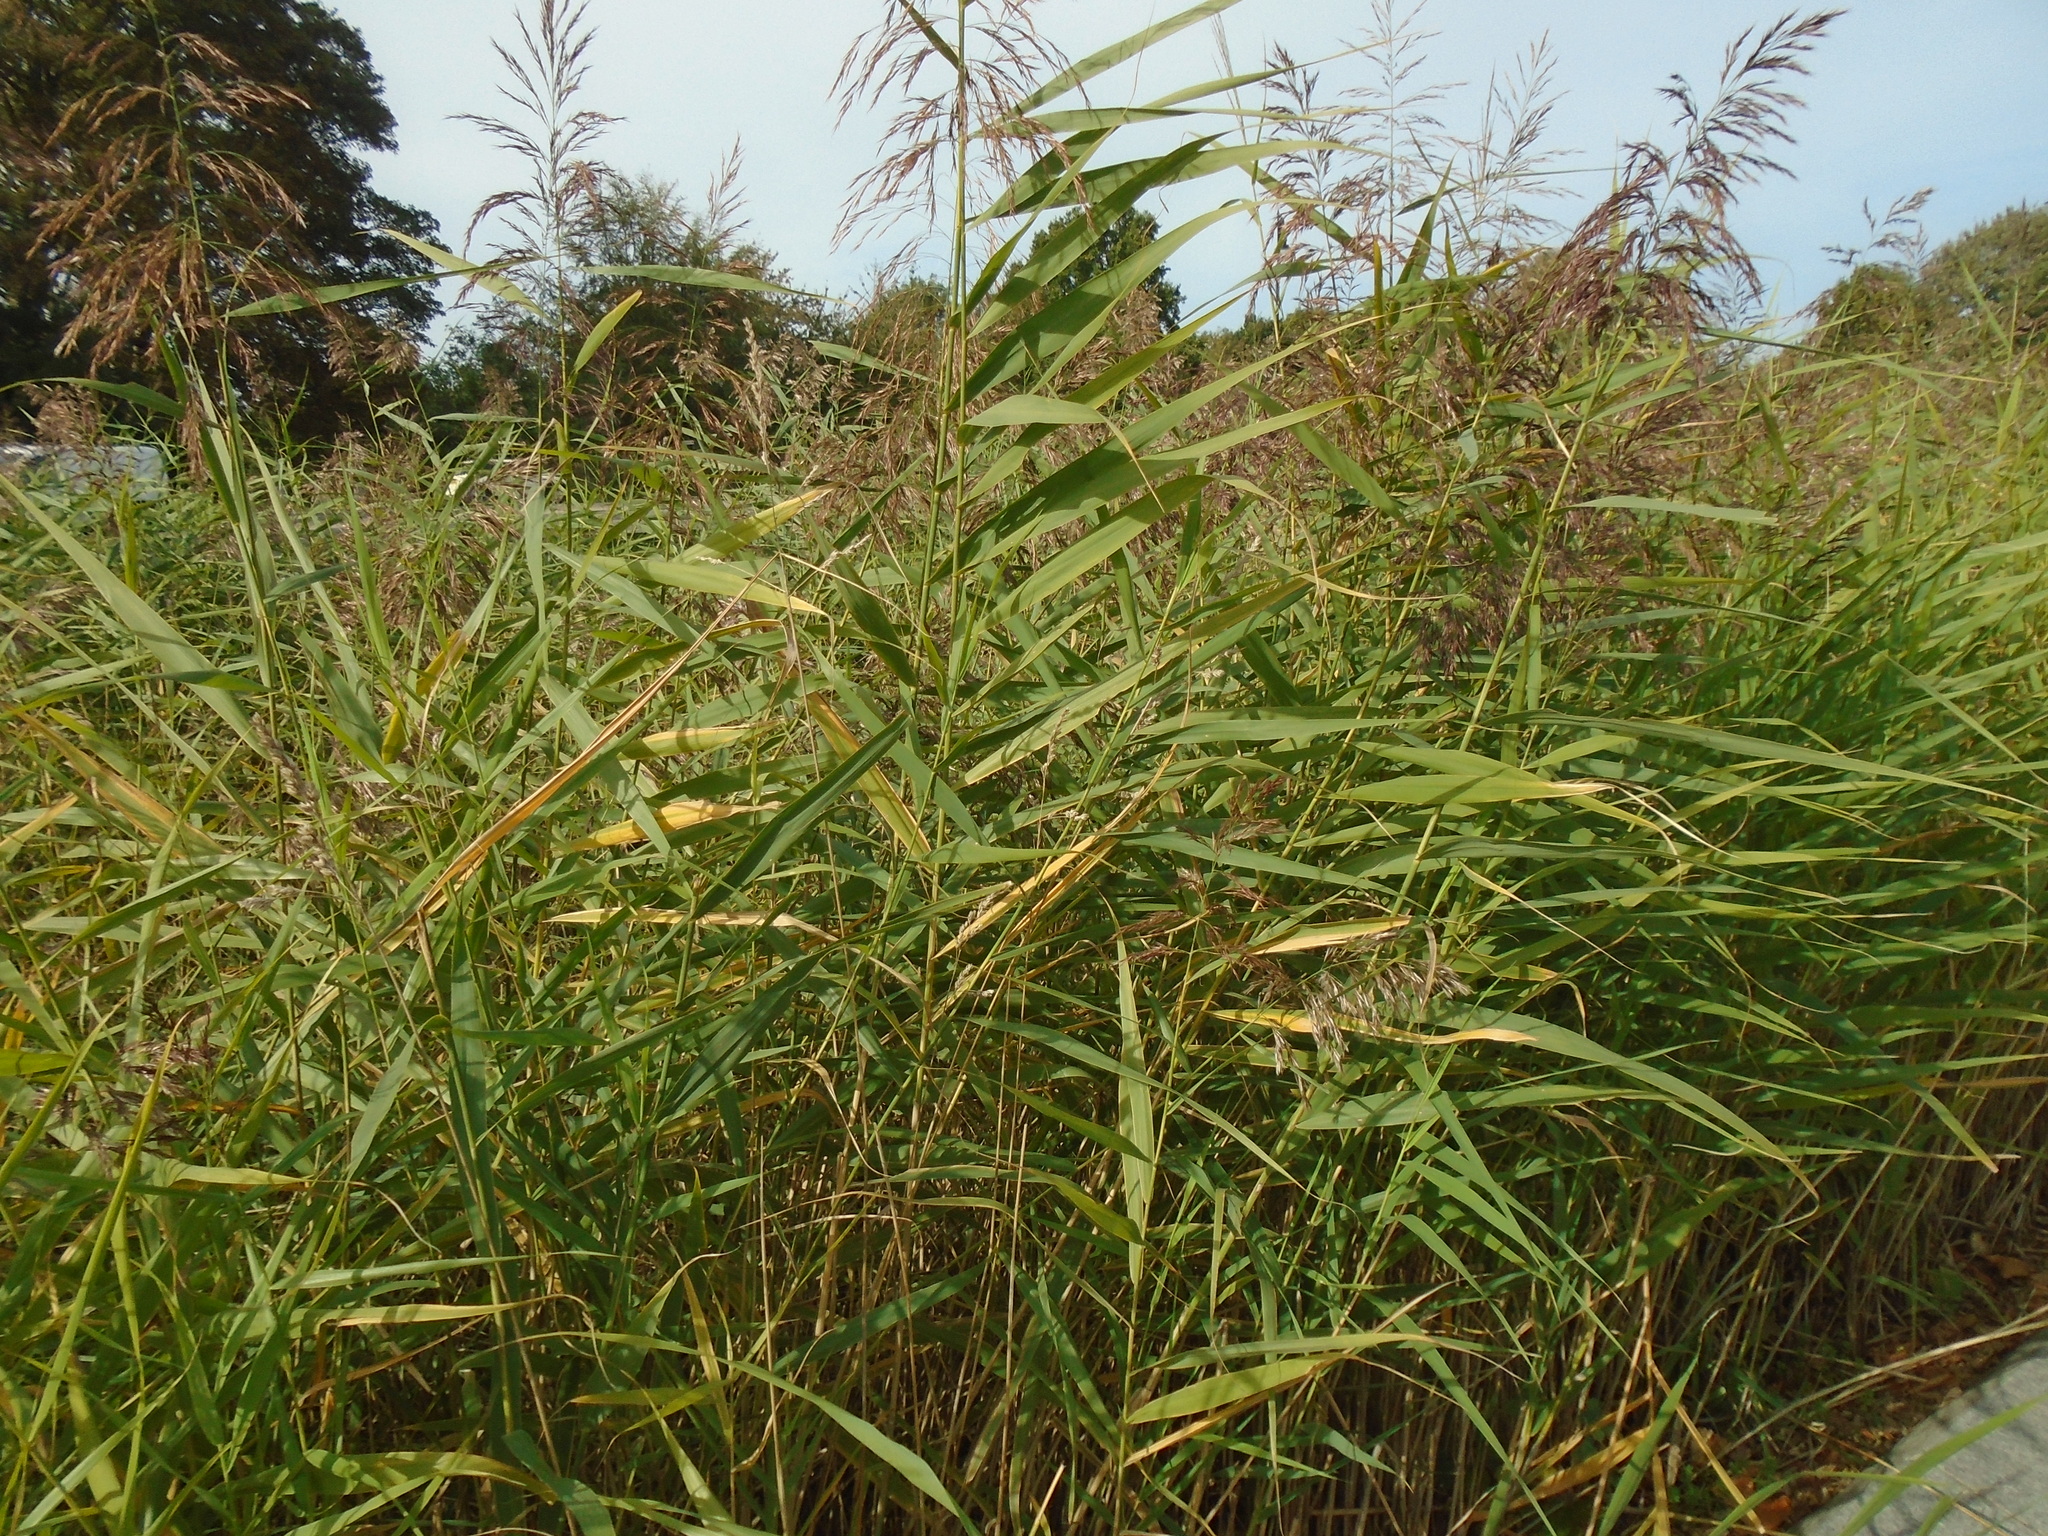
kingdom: Plantae
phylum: Tracheophyta
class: Liliopsida
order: Poales
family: Poaceae
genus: Phragmites
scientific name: Phragmites australis
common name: Common reed
